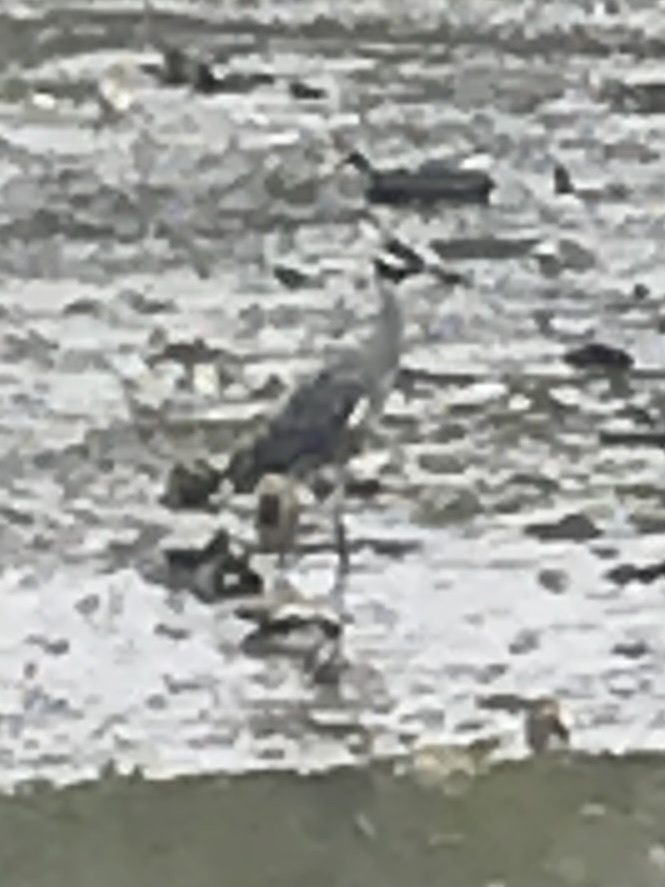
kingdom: Animalia
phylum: Chordata
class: Aves
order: Pelecaniformes
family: Ardeidae
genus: Nyctanassa
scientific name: Nyctanassa violacea
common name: Yellow-crowned night heron
